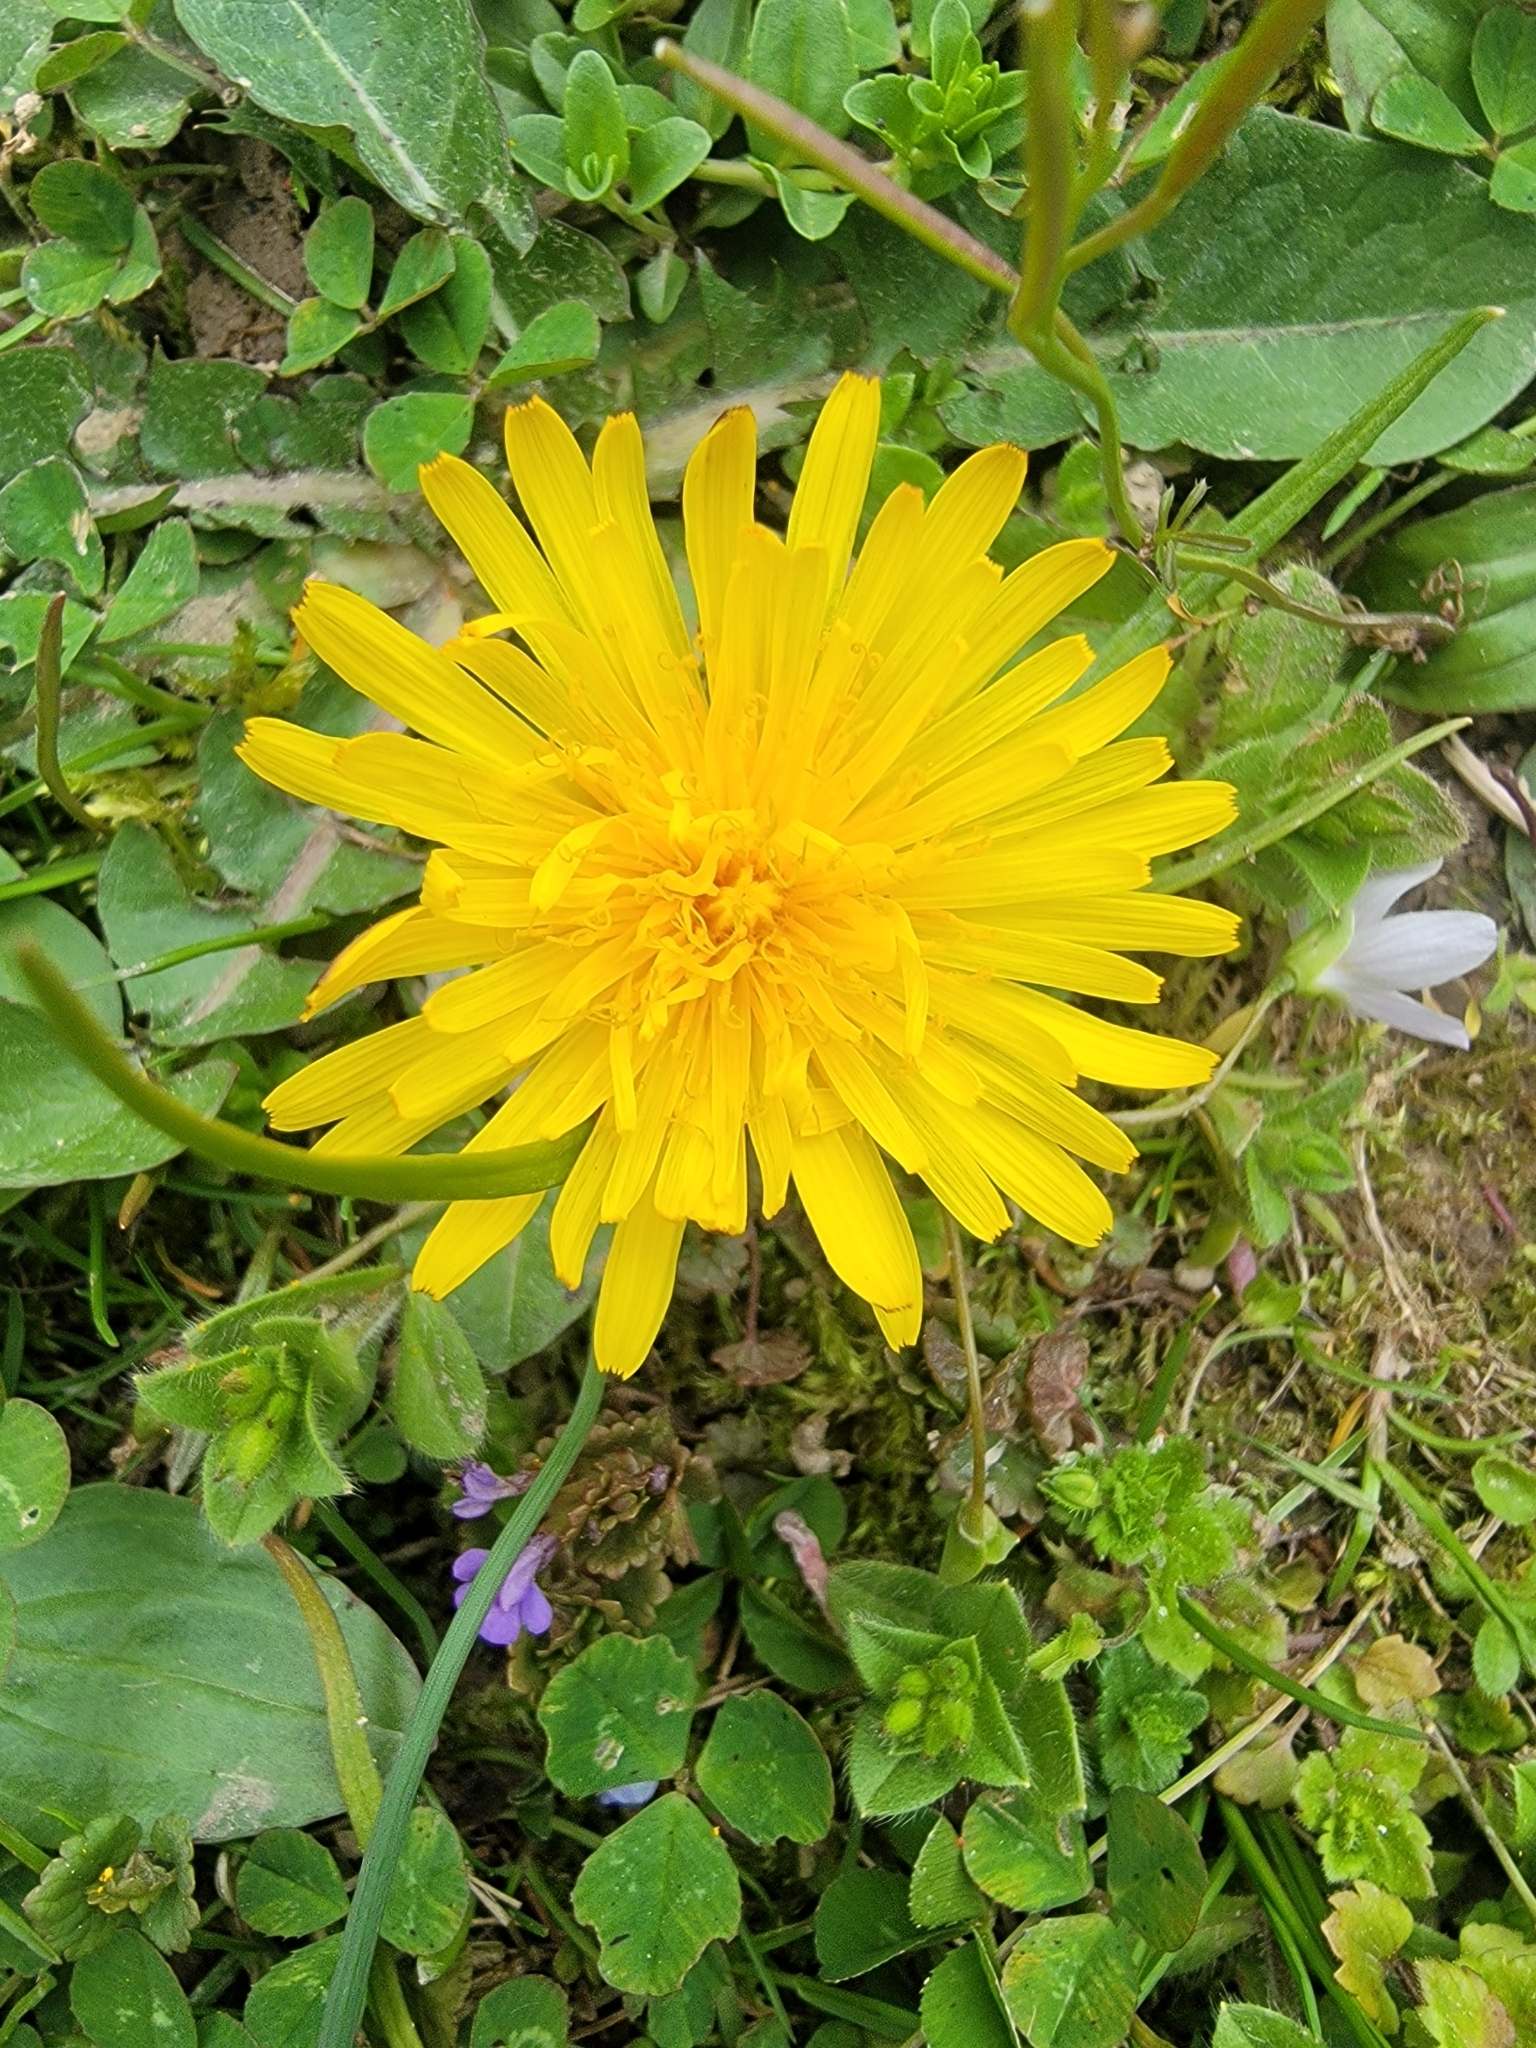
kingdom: Plantae
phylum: Tracheophyta
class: Magnoliopsida
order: Asterales
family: Asteraceae
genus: Taraxacum
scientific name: Taraxacum officinale
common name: Common dandelion
